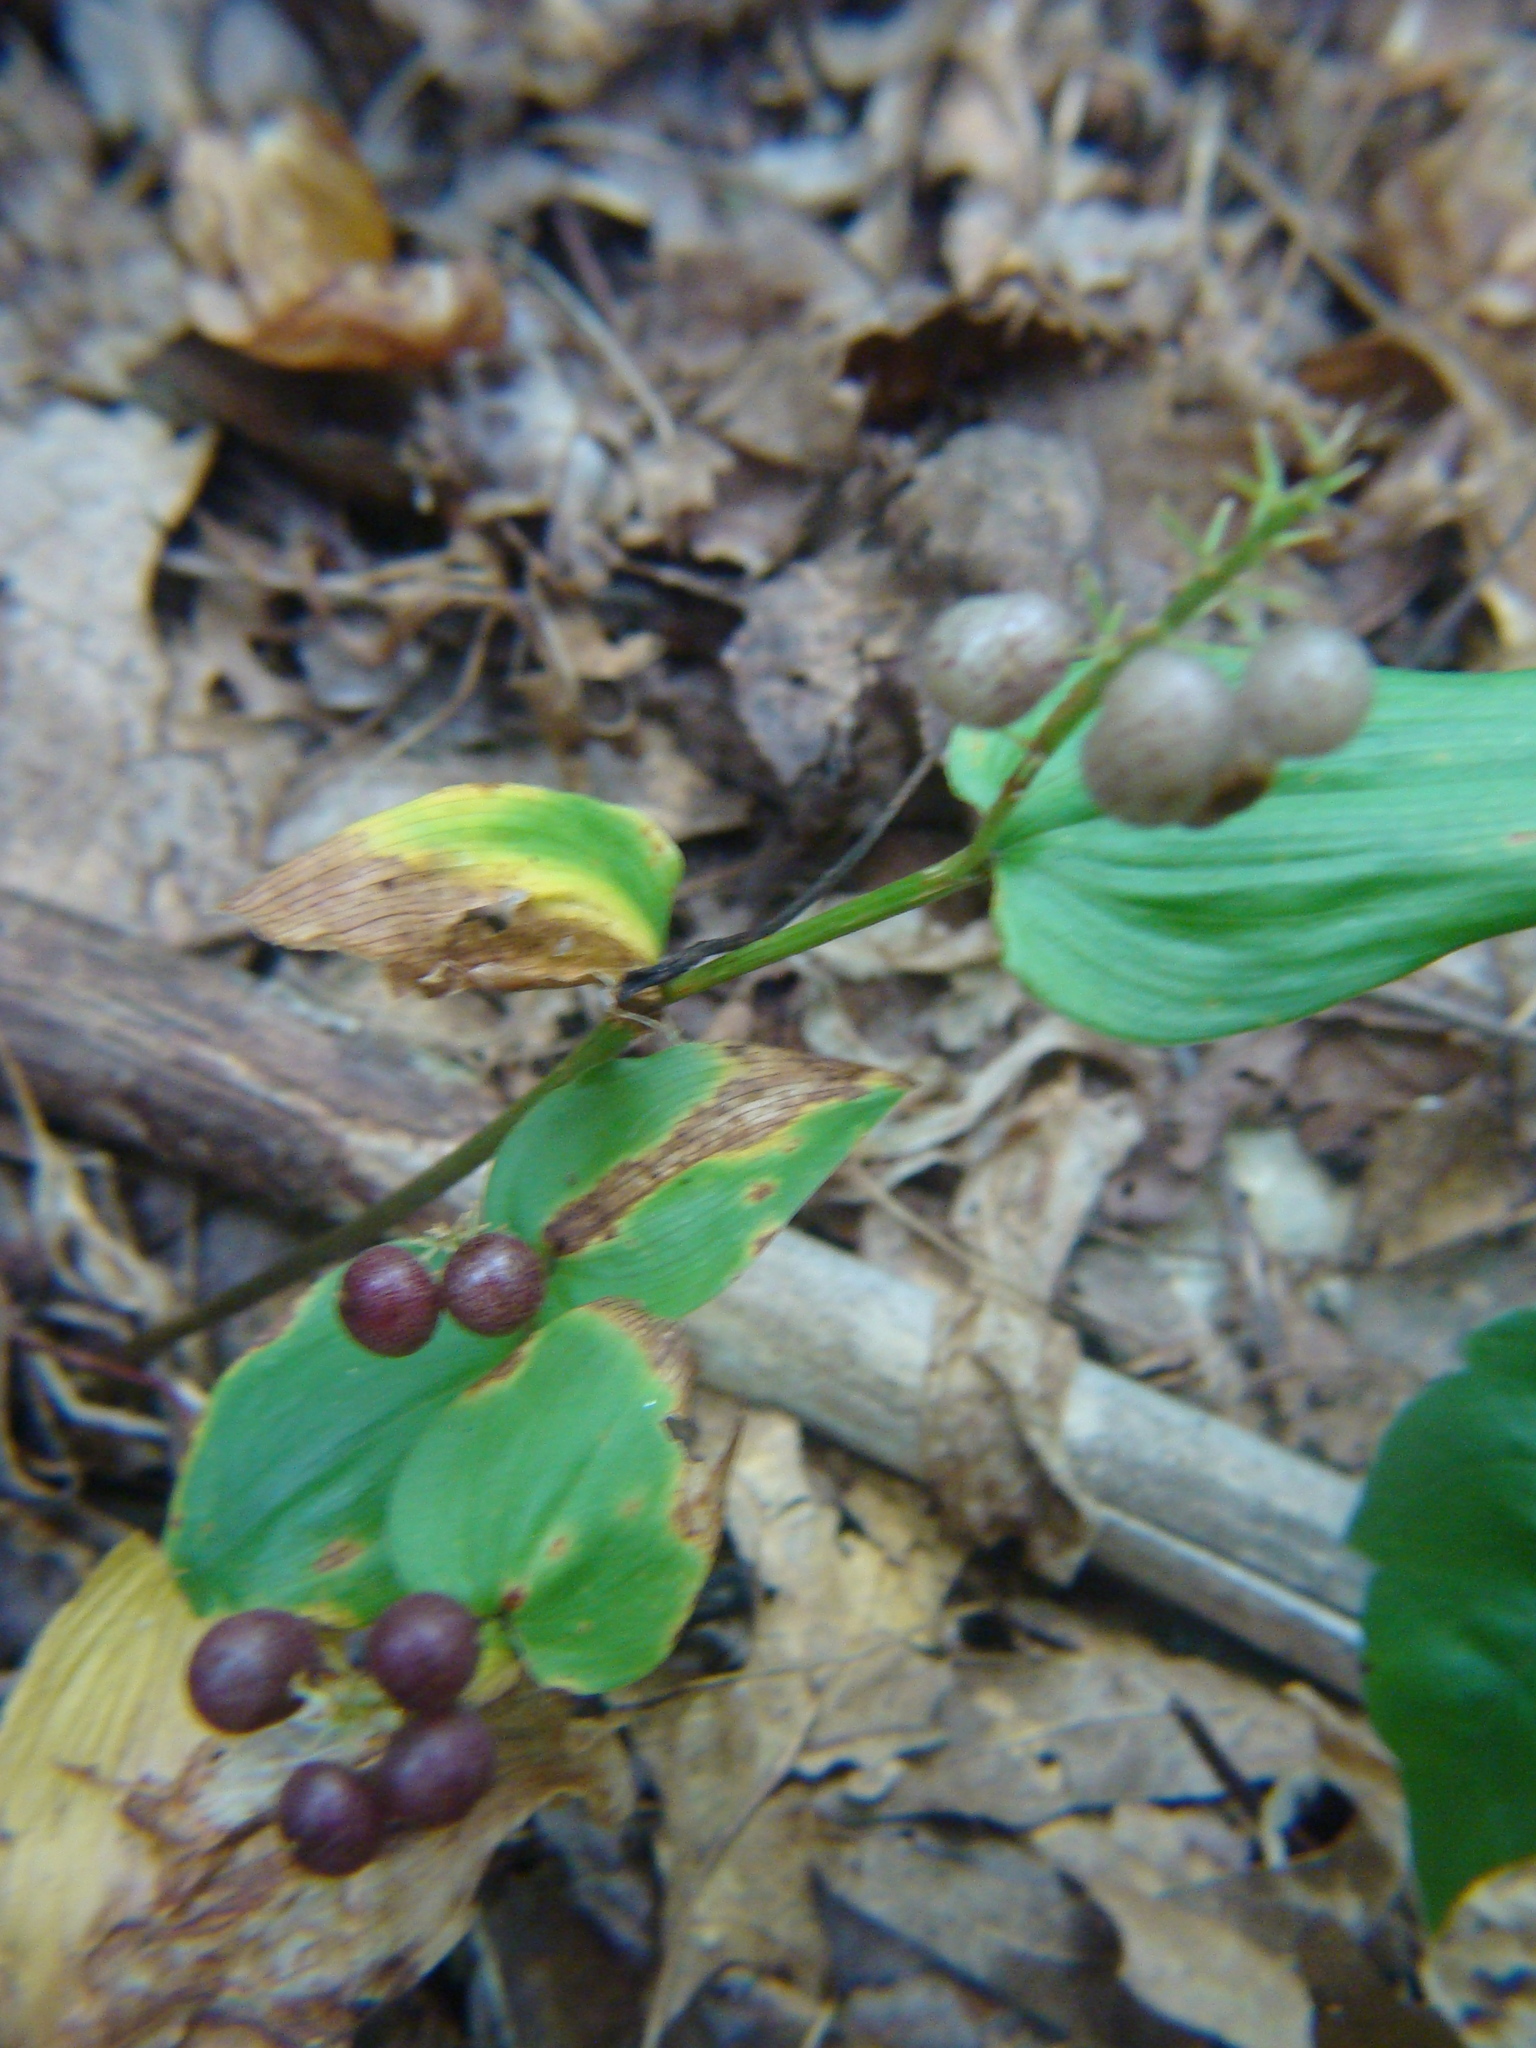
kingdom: Plantae
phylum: Tracheophyta
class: Liliopsida
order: Asparagales
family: Asparagaceae
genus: Maianthemum
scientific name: Maianthemum canadense
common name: False lily-of-the-valley
